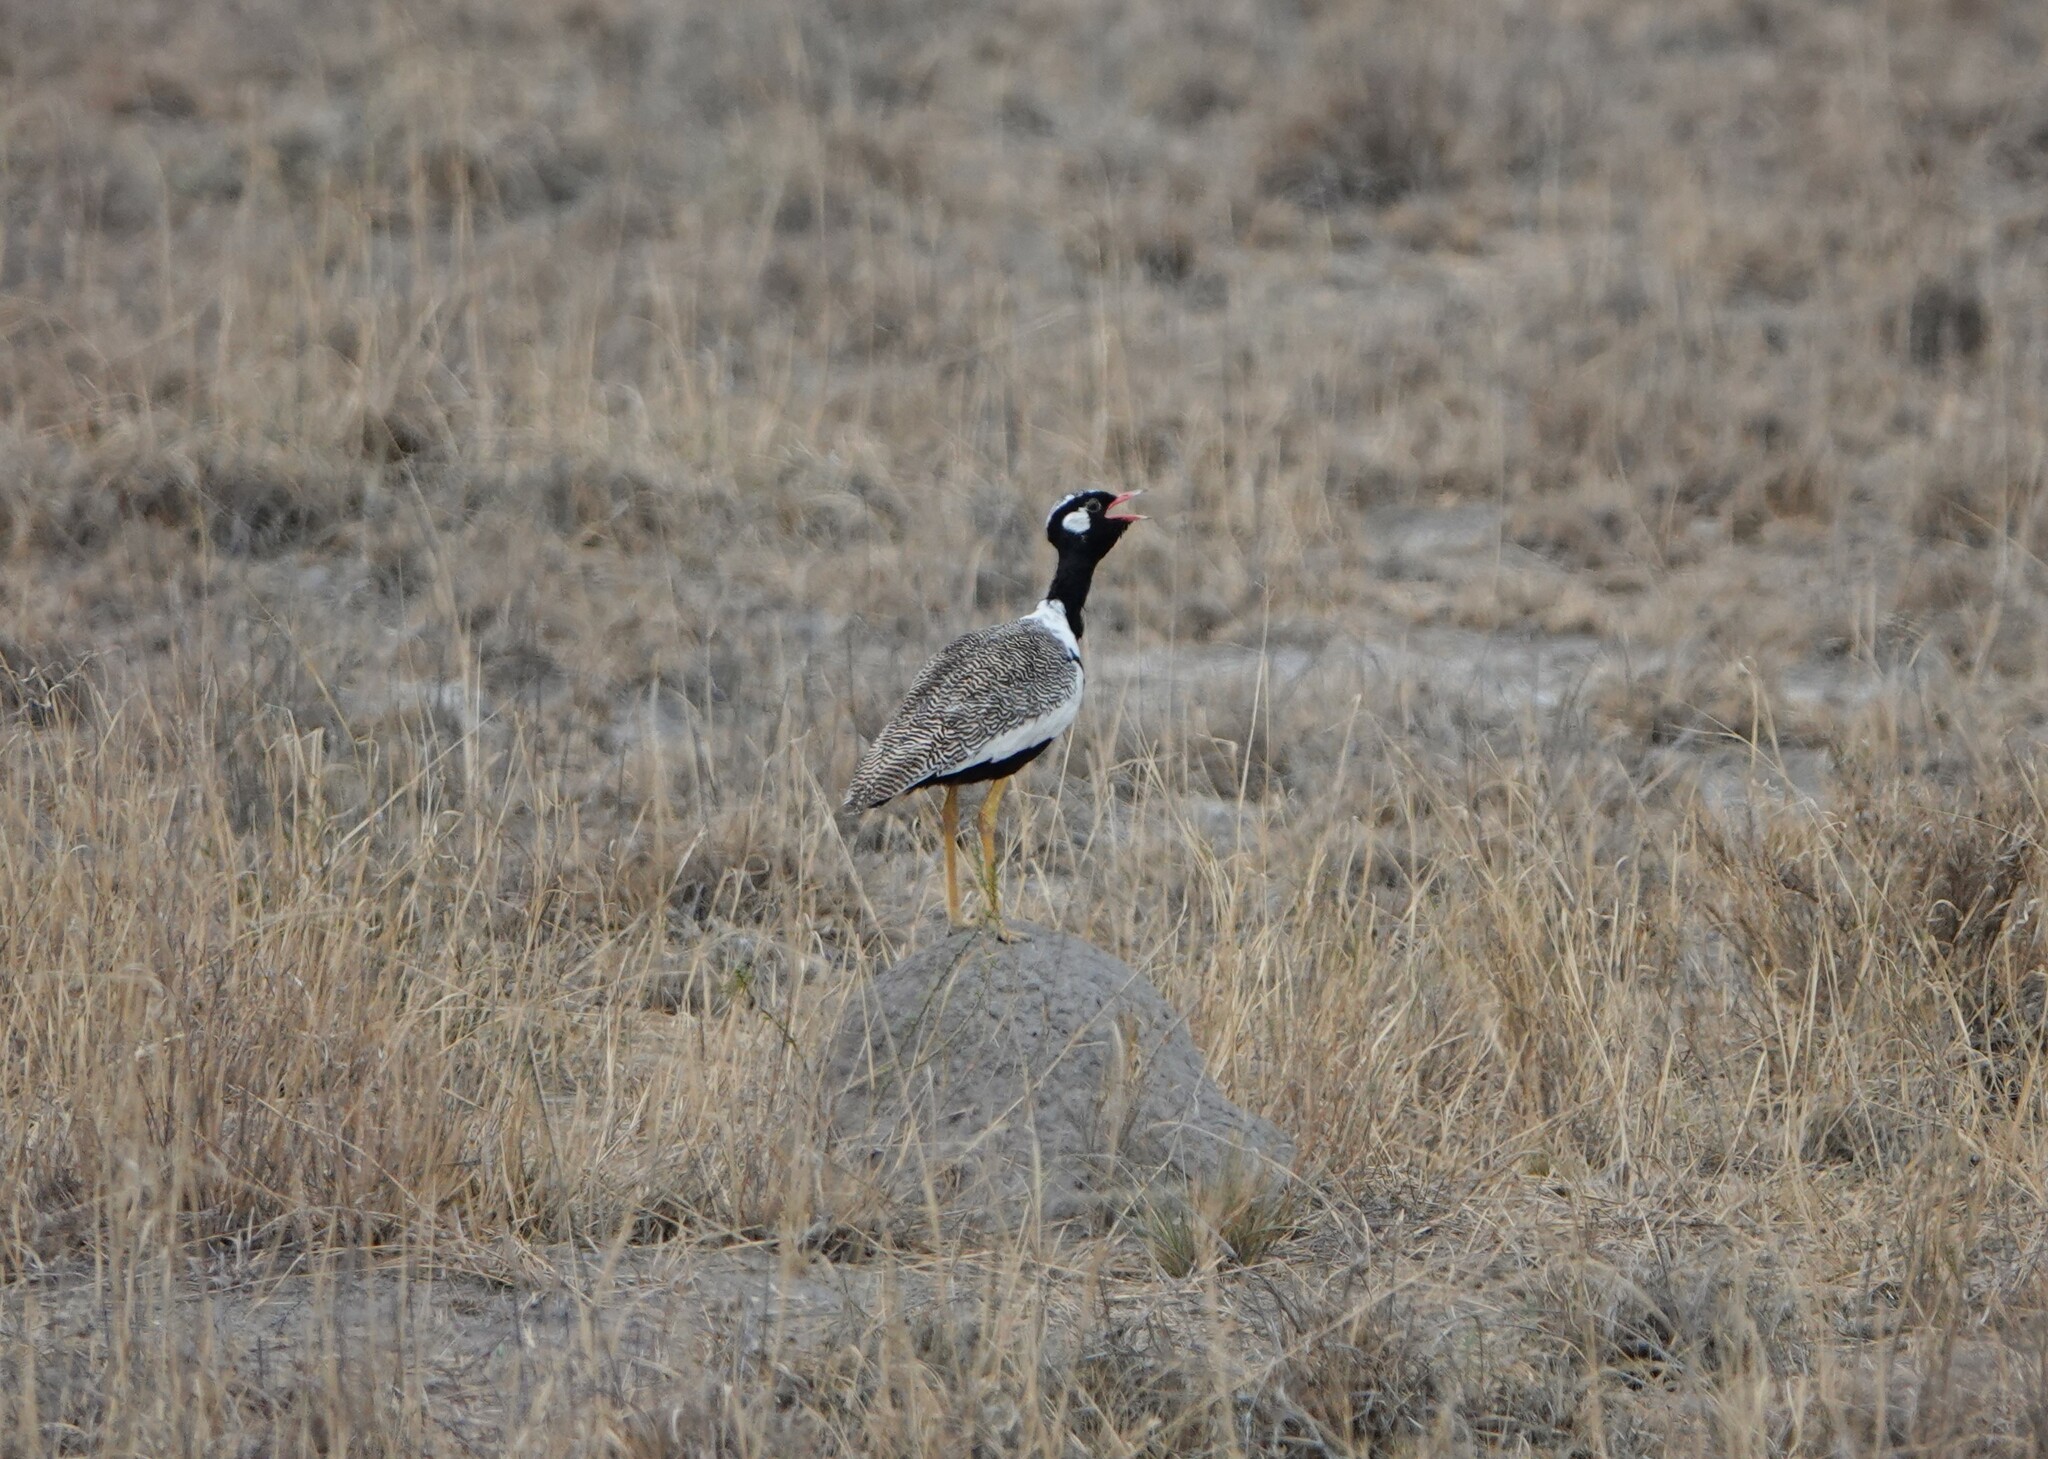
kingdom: Animalia
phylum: Chordata
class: Aves
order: Otidiformes
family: Otididae
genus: Afrotis
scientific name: Afrotis afraoides
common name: Northern black korhaan
